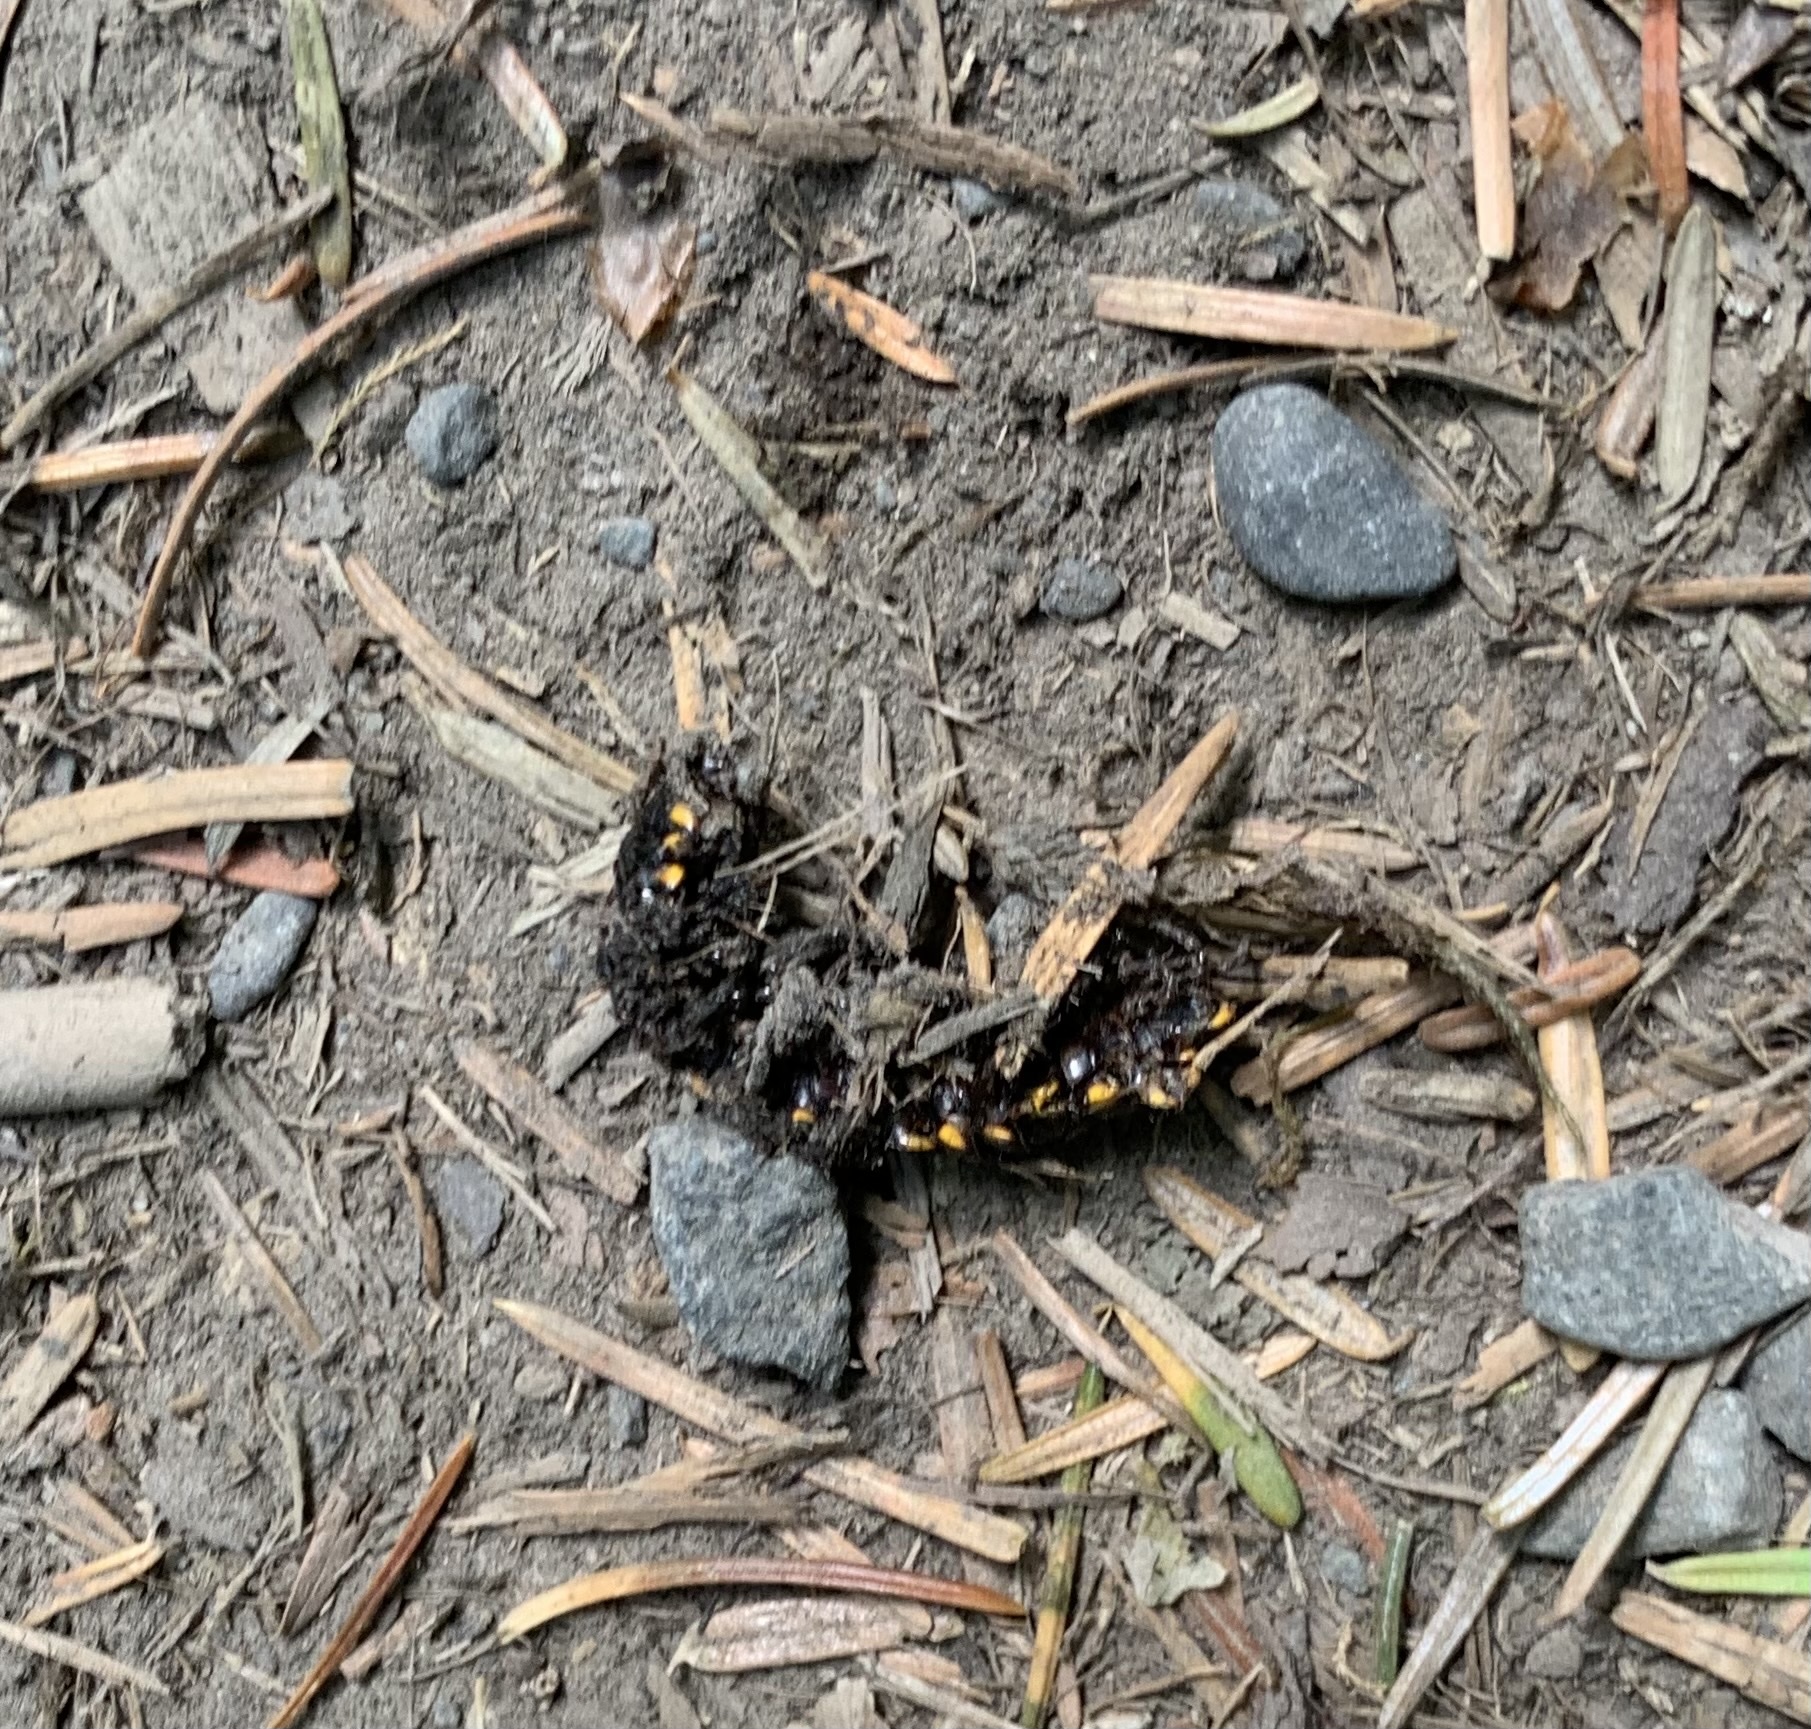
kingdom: Animalia
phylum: Arthropoda
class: Diplopoda
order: Polydesmida
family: Xystodesmidae
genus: Harpaphe
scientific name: Harpaphe haydeniana
